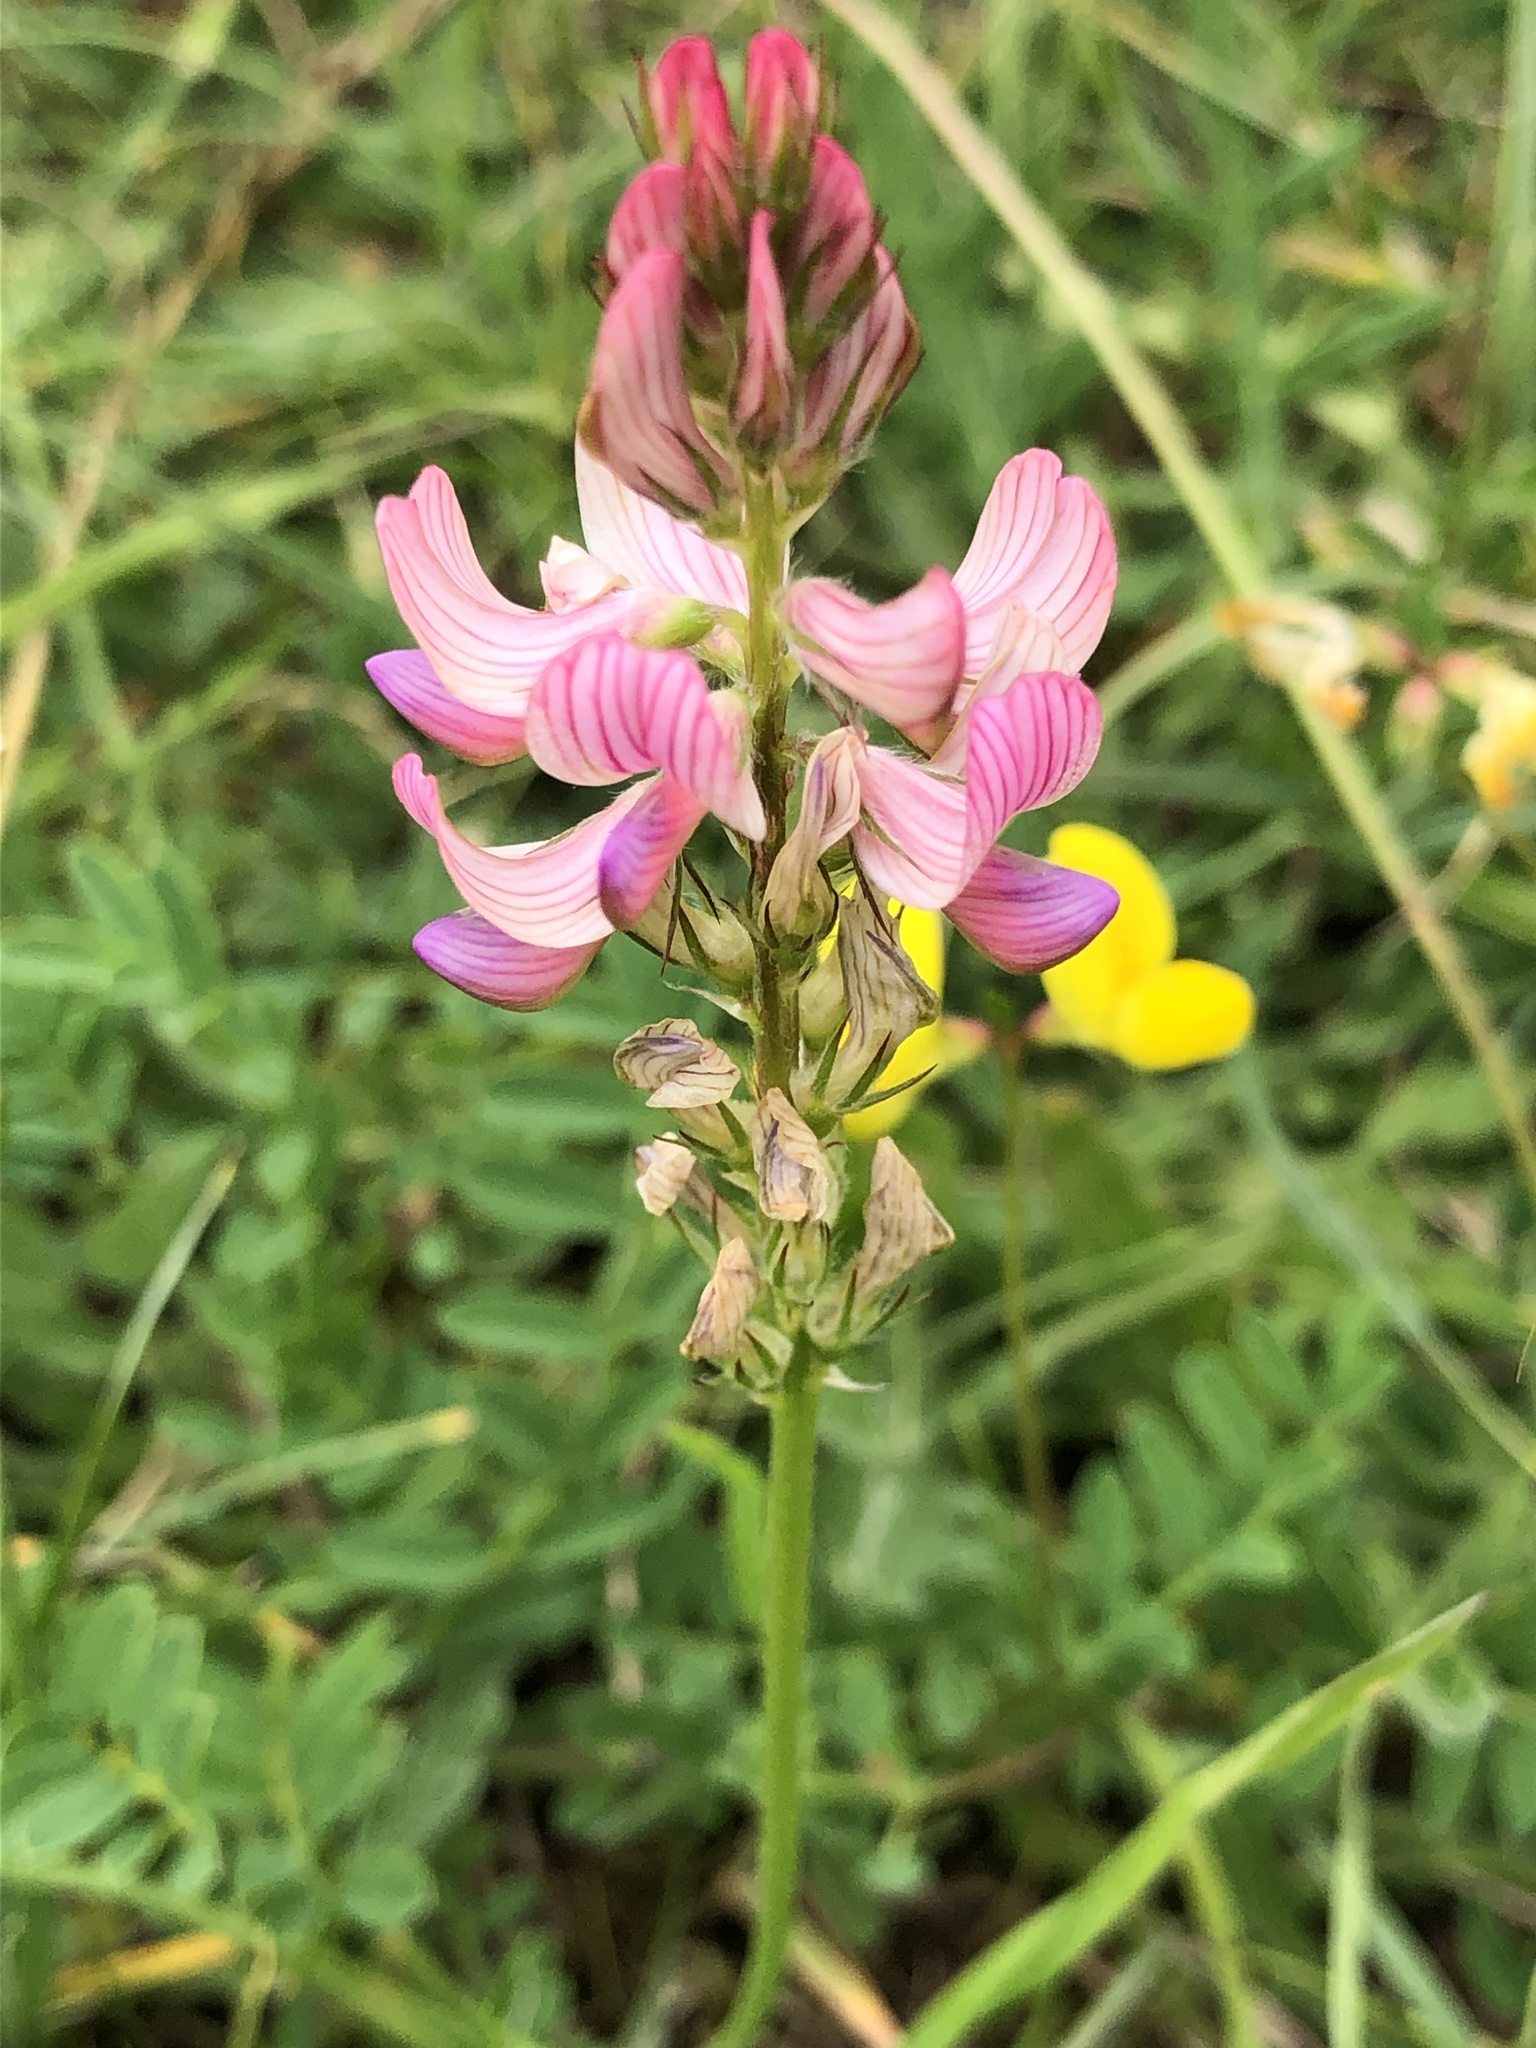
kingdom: Plantae
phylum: Tracheophyta
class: Magnoliopsida
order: Fabales
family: Fabaceae
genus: Onobrychis
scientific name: Onobrychis viciifolia
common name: Sainfoin
